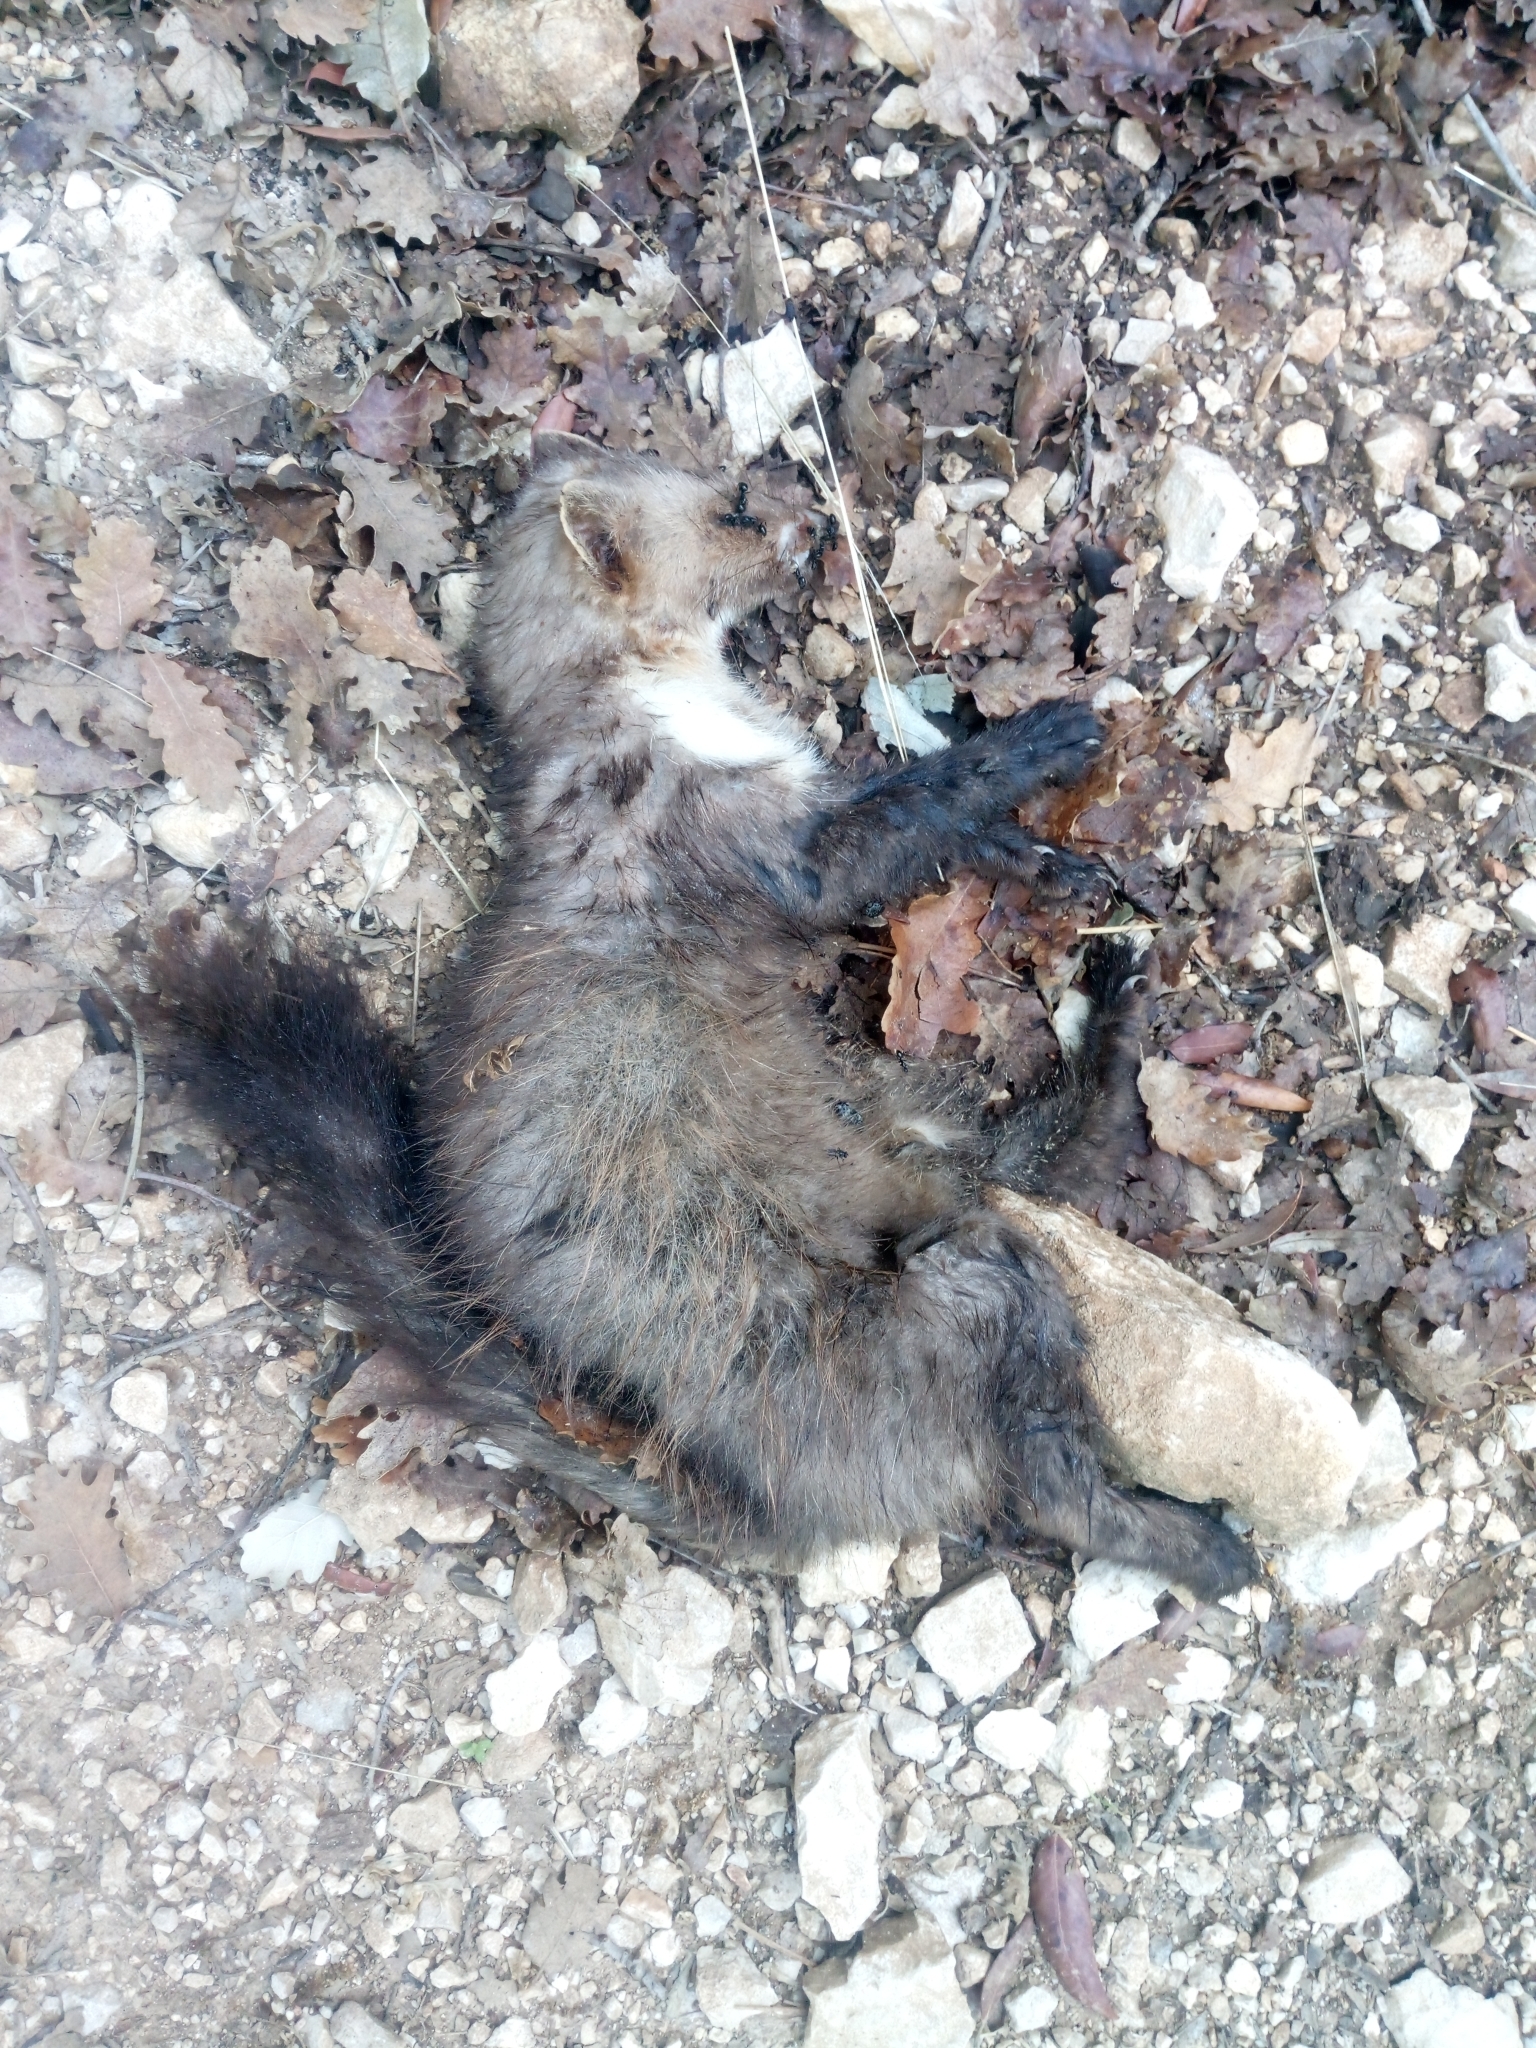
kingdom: Animalia
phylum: Chordata
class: Mammalia
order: Carnivora
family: Mustelidae
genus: Martes
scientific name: Martes foina
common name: Beech marten
